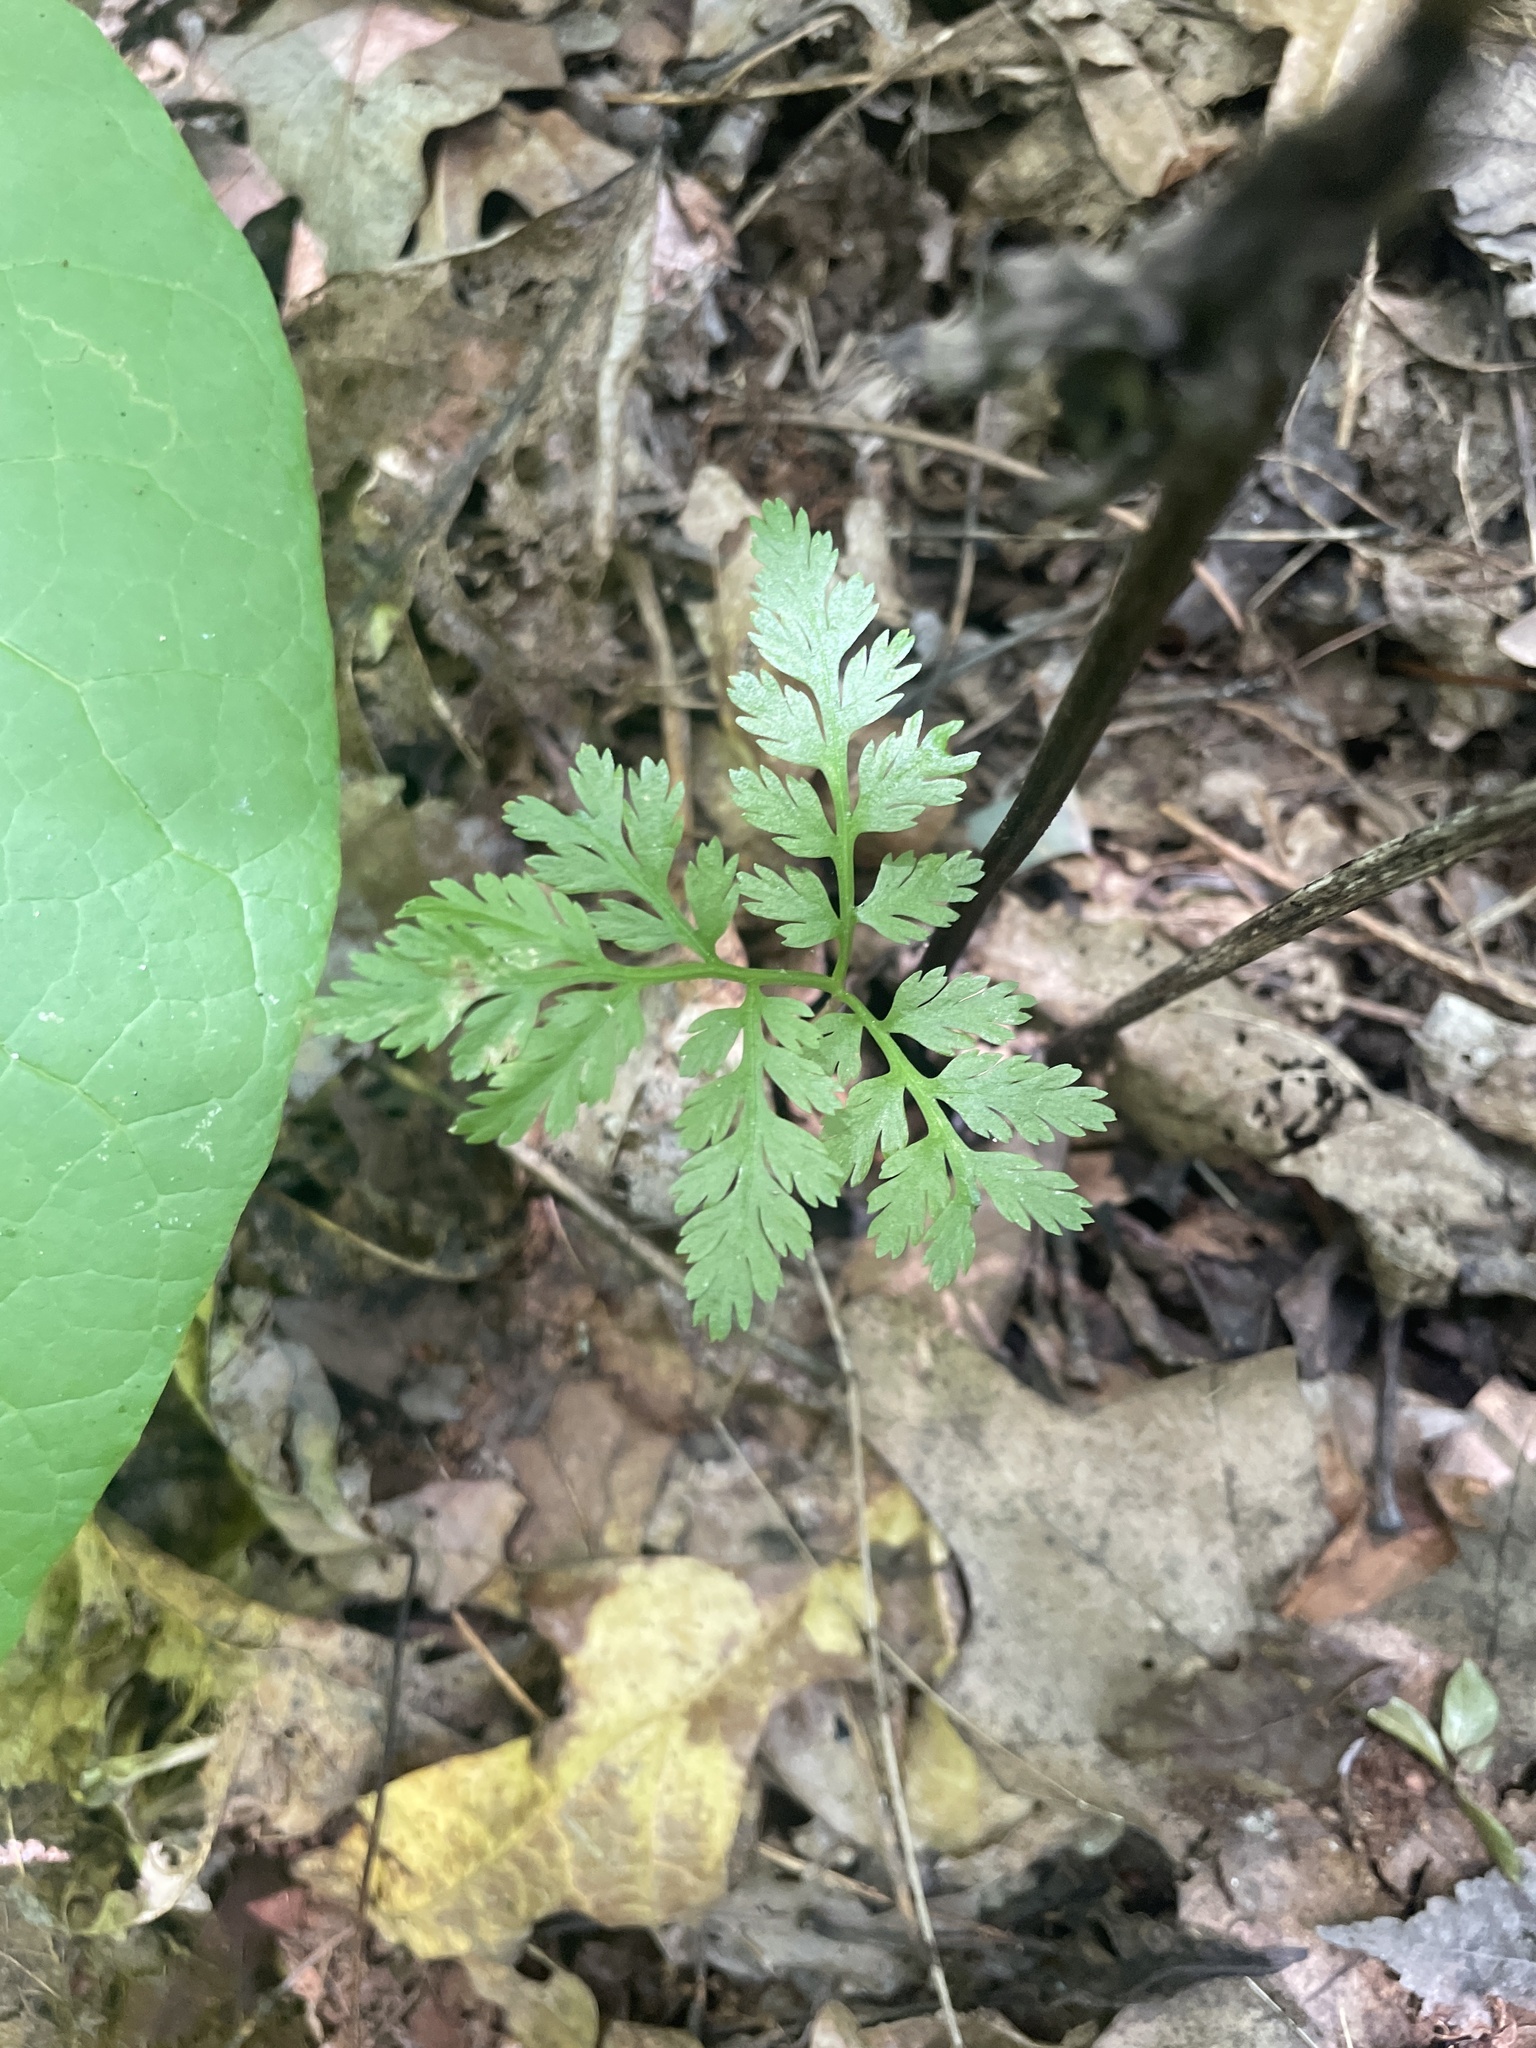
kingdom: Plantae
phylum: Tracheophyta
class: Polypodiopsida
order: Ophioglossales
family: Ophioglossaceae
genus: Botrypus
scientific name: Botrypus virginianus
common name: Common grapefern
